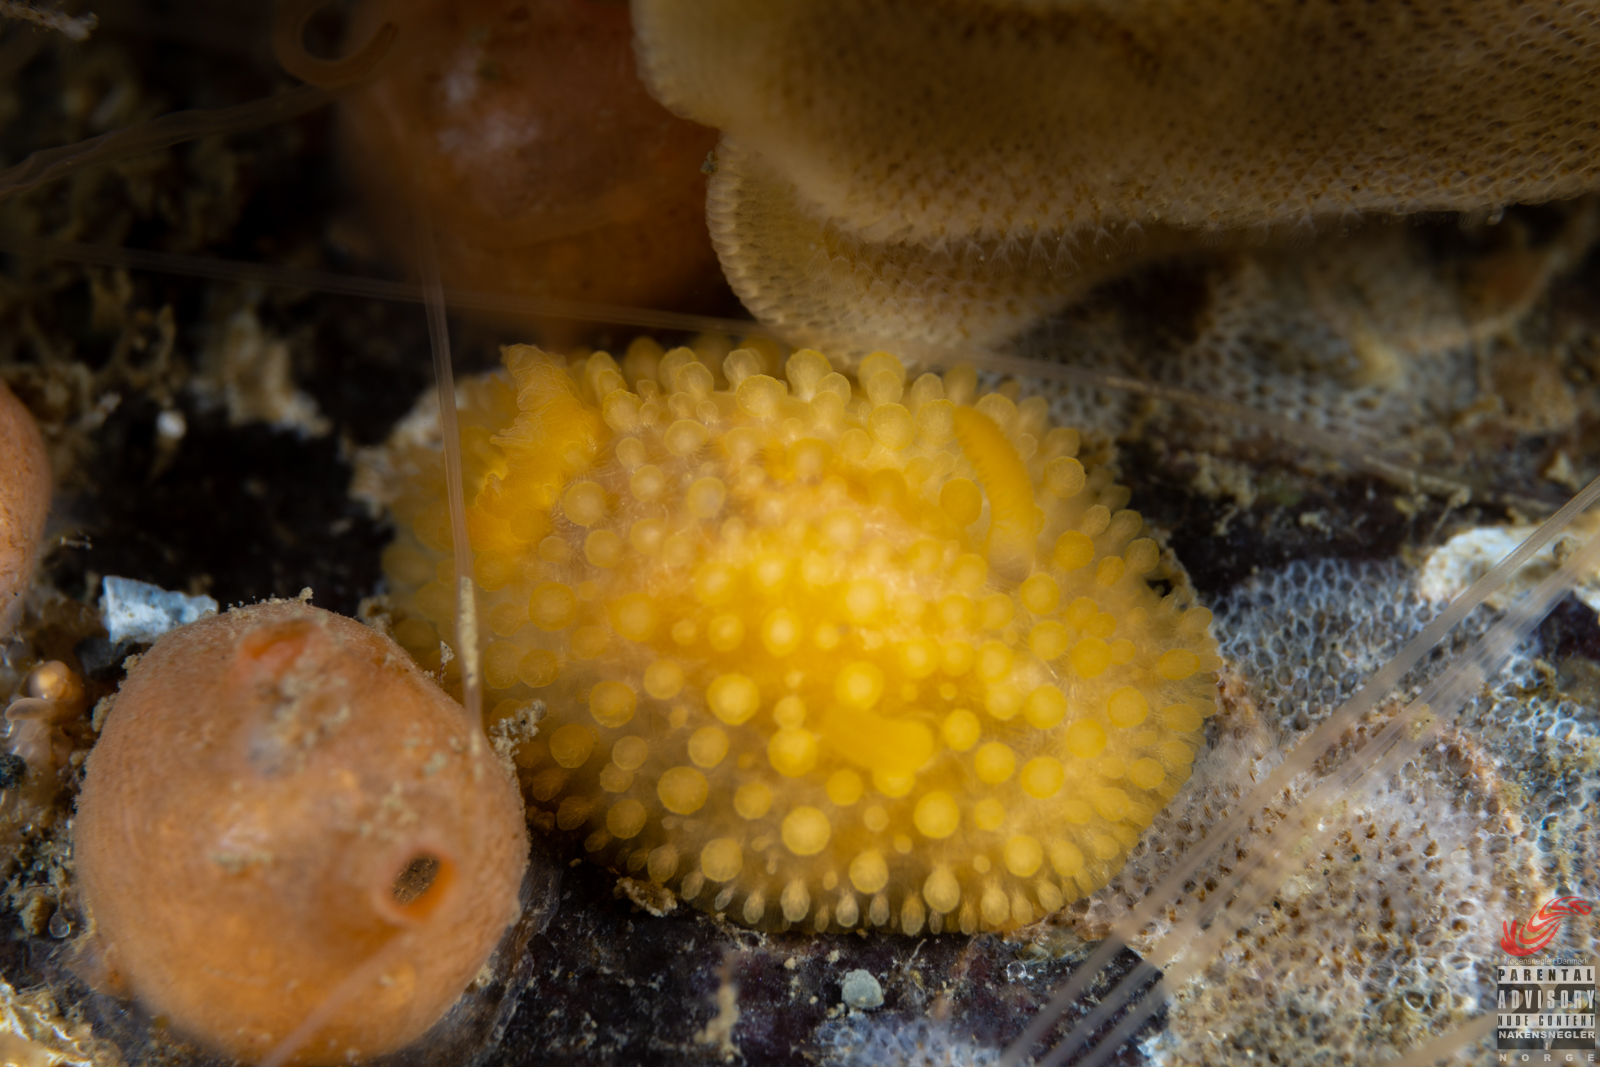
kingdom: Animalia
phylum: Mollusca
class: Gastropoda
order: Nudibranchia
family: Onchidorididae
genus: Adalaria
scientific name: Adalaria loveni
